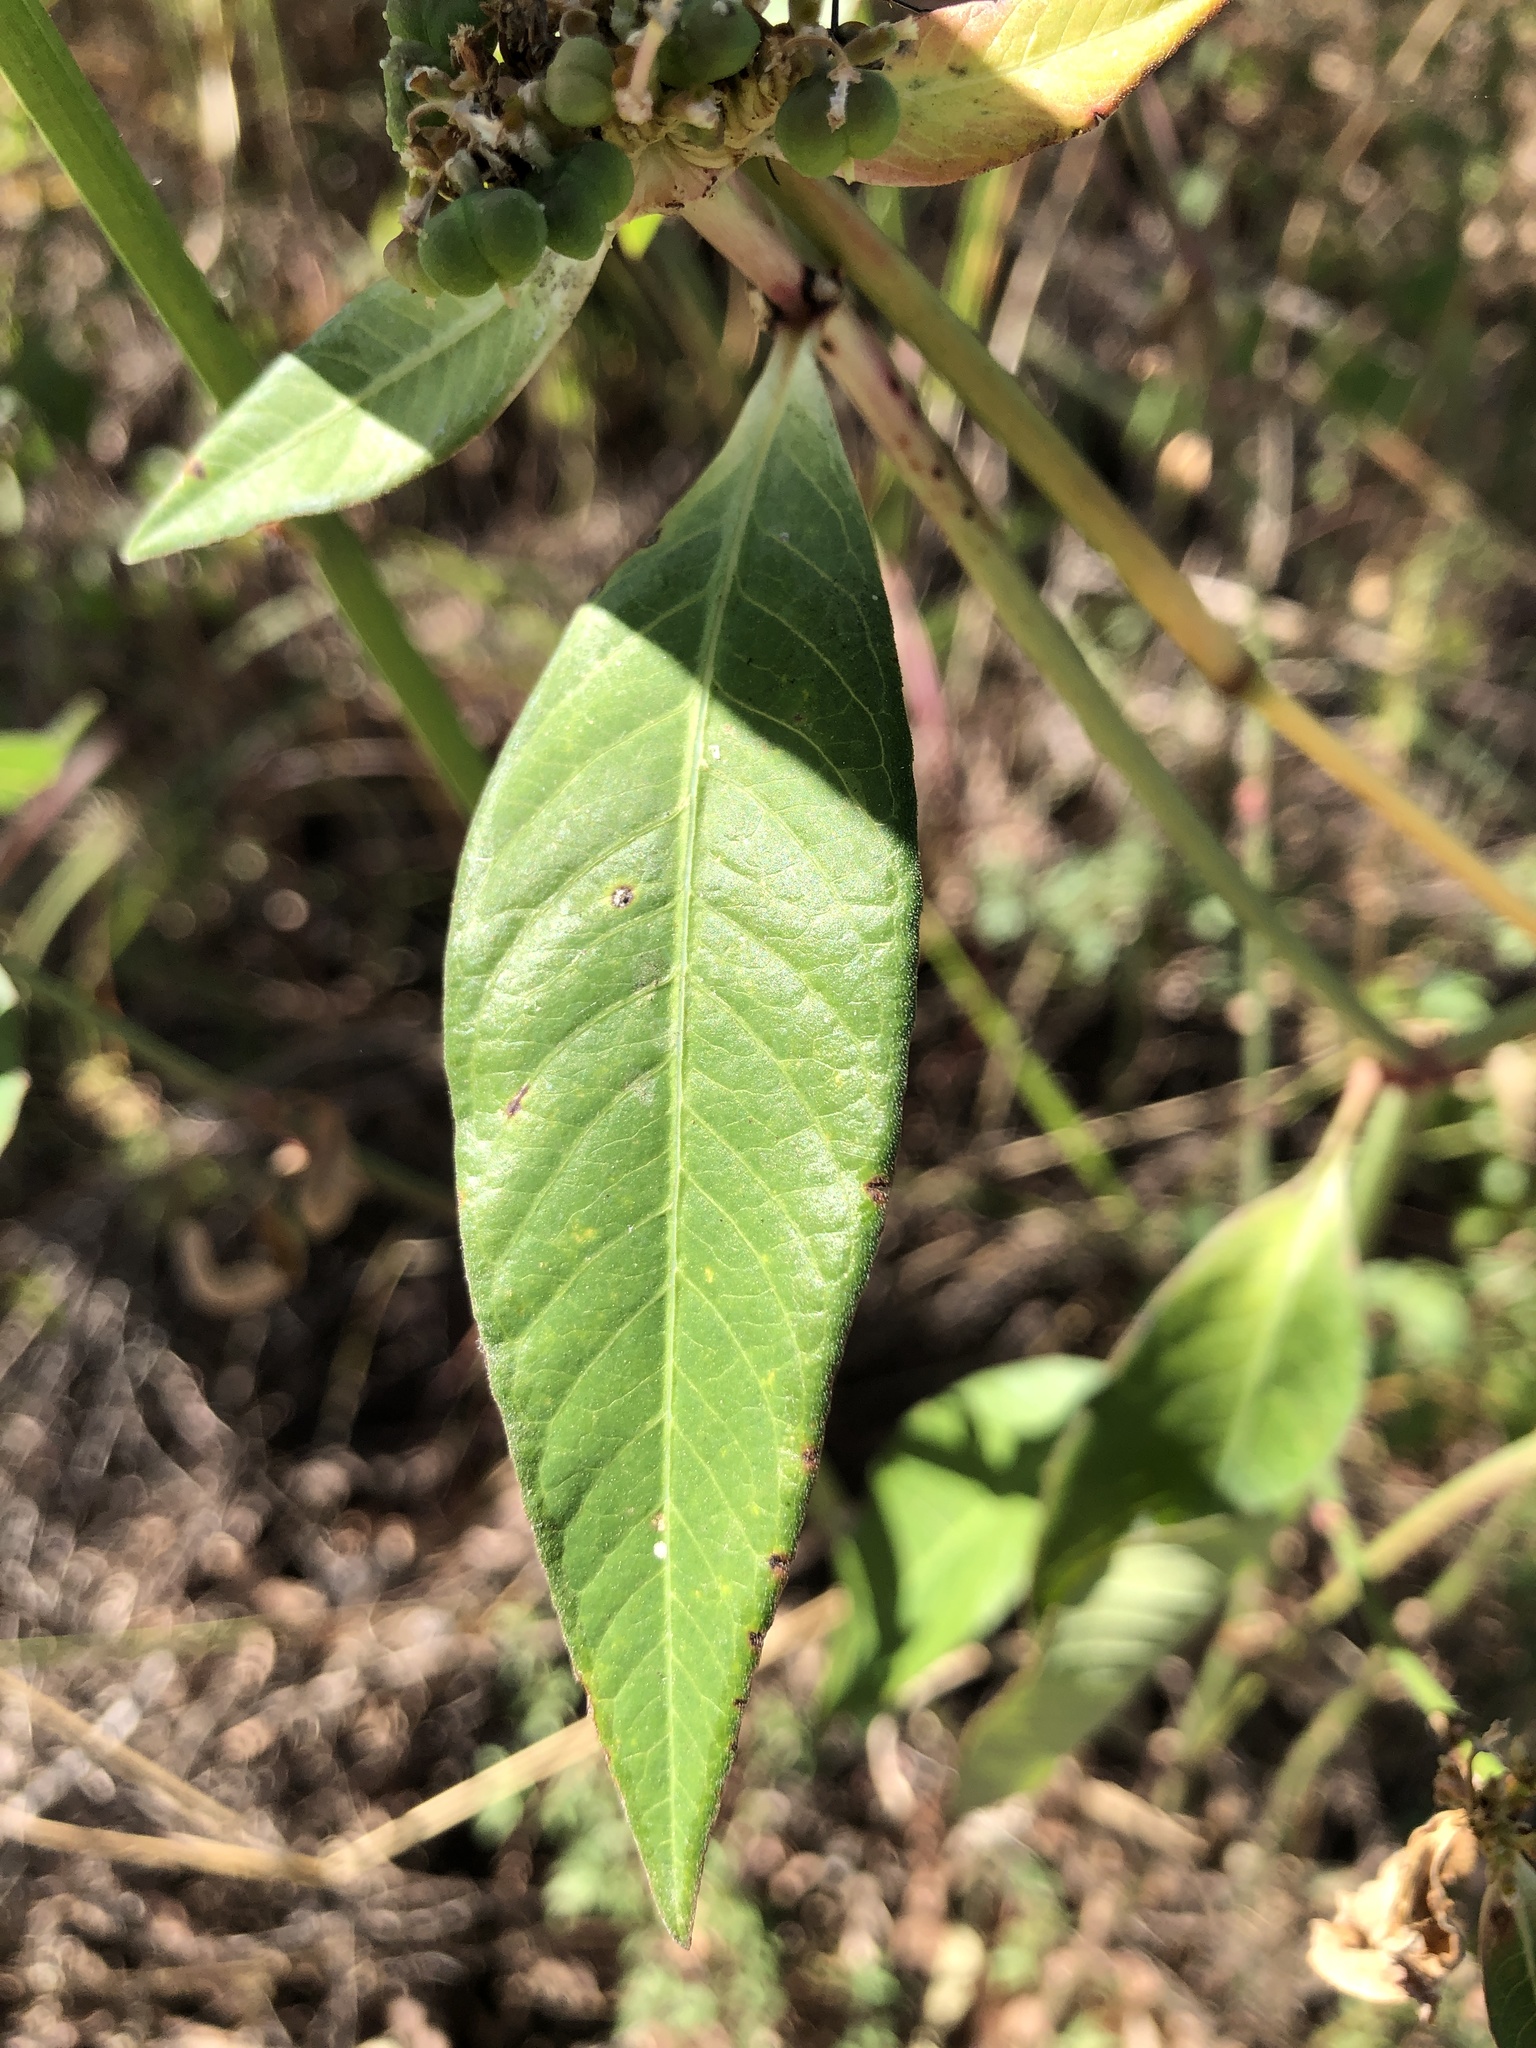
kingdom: Plantae
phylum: Tracheophyta
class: Magnoliopsida
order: Malpighiales
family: Euphorbiaceae
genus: Euphorbia
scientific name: Euphorbia heterophylla
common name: Mexican fireplant
